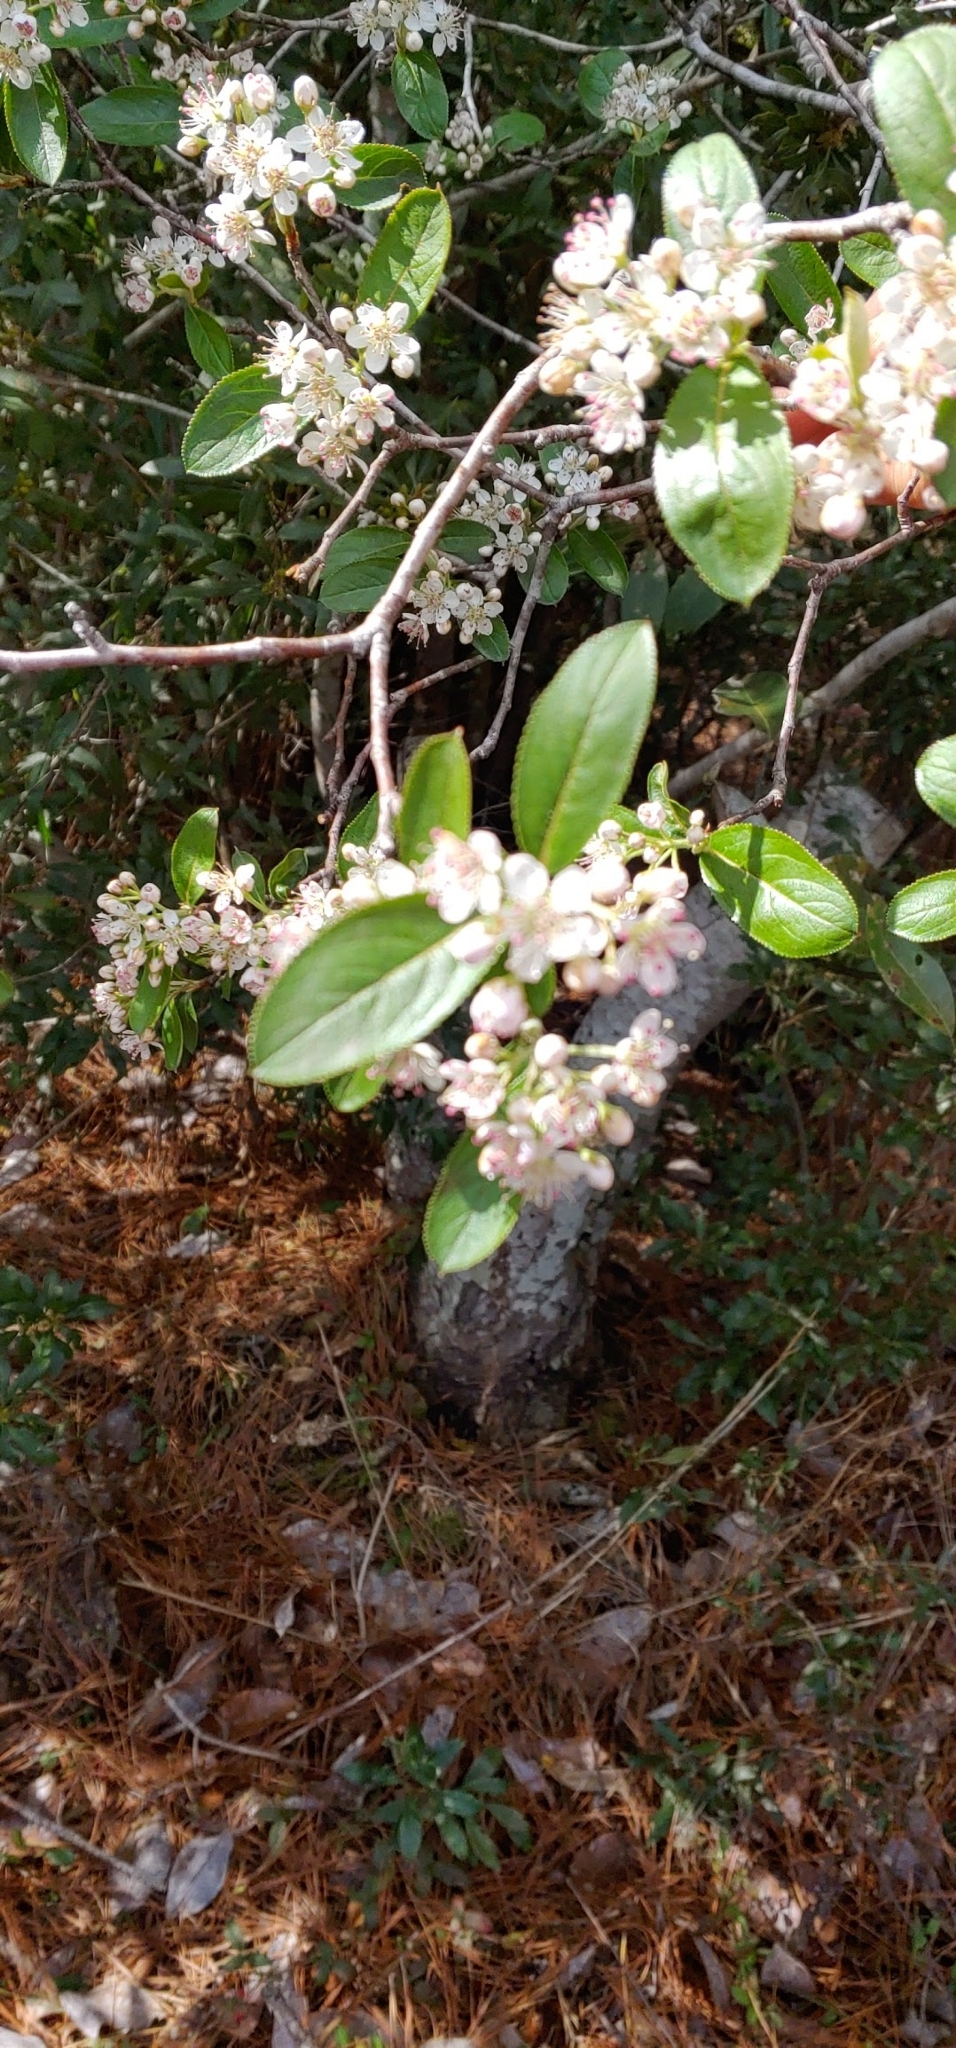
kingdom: Plantae
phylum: Tracheophyta
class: Magnoliopsida
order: Rosales
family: Rosaceae
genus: Aronia
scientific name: Aronia arbutifolia
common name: Red chokeberry
